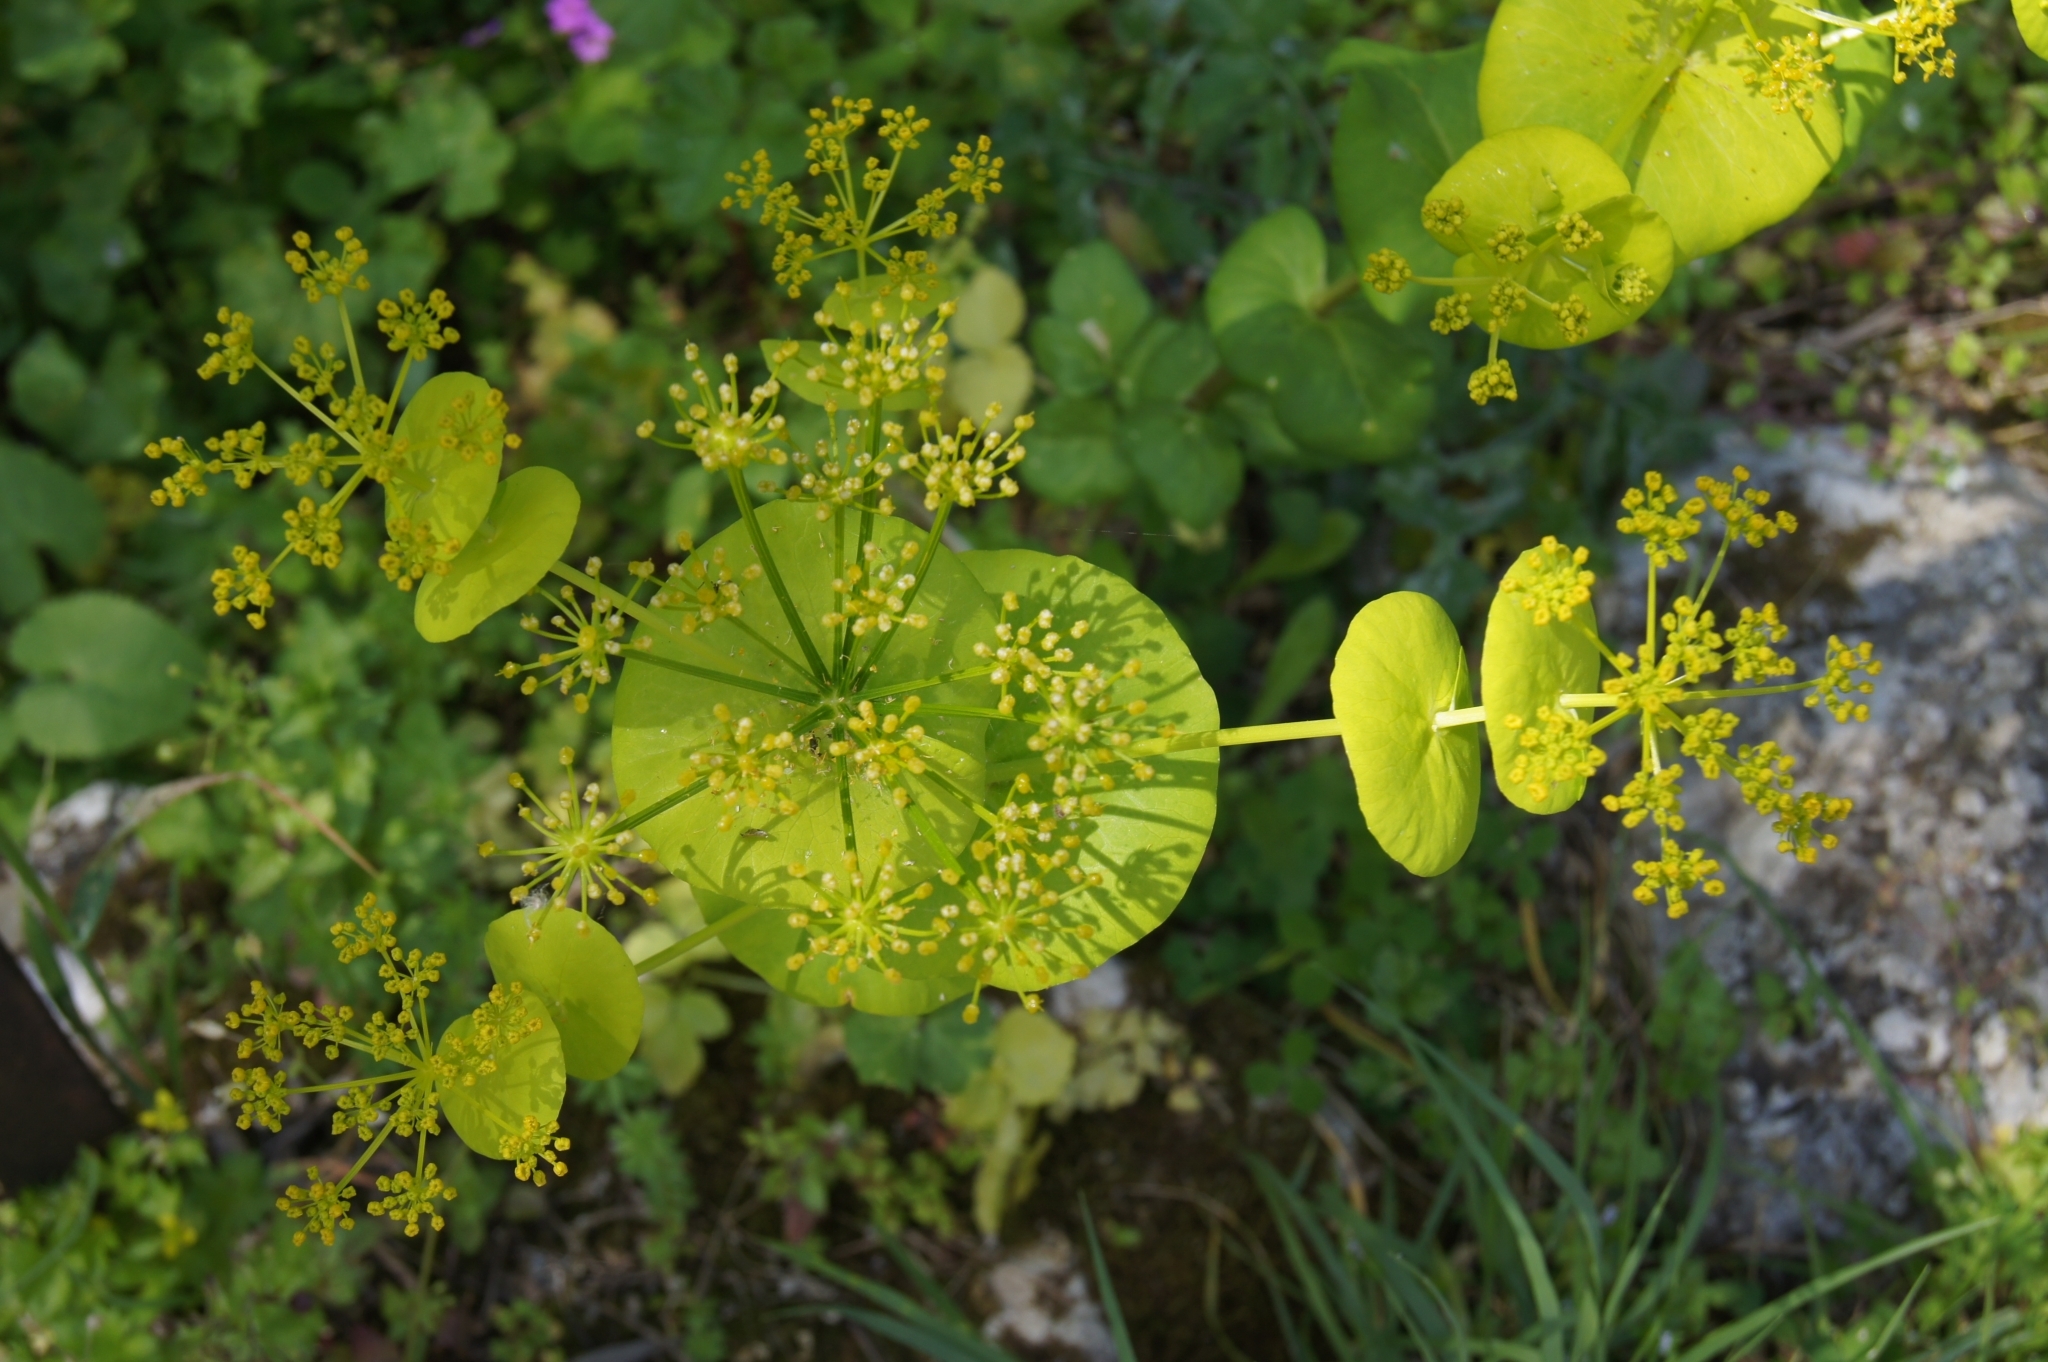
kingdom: Plantae
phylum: Tracheophyta
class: Magnoliopsida
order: Apiales
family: Apiaceae
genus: Smyrnium
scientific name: Smyrnium perfoliatum
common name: Perfoliate alexanders
